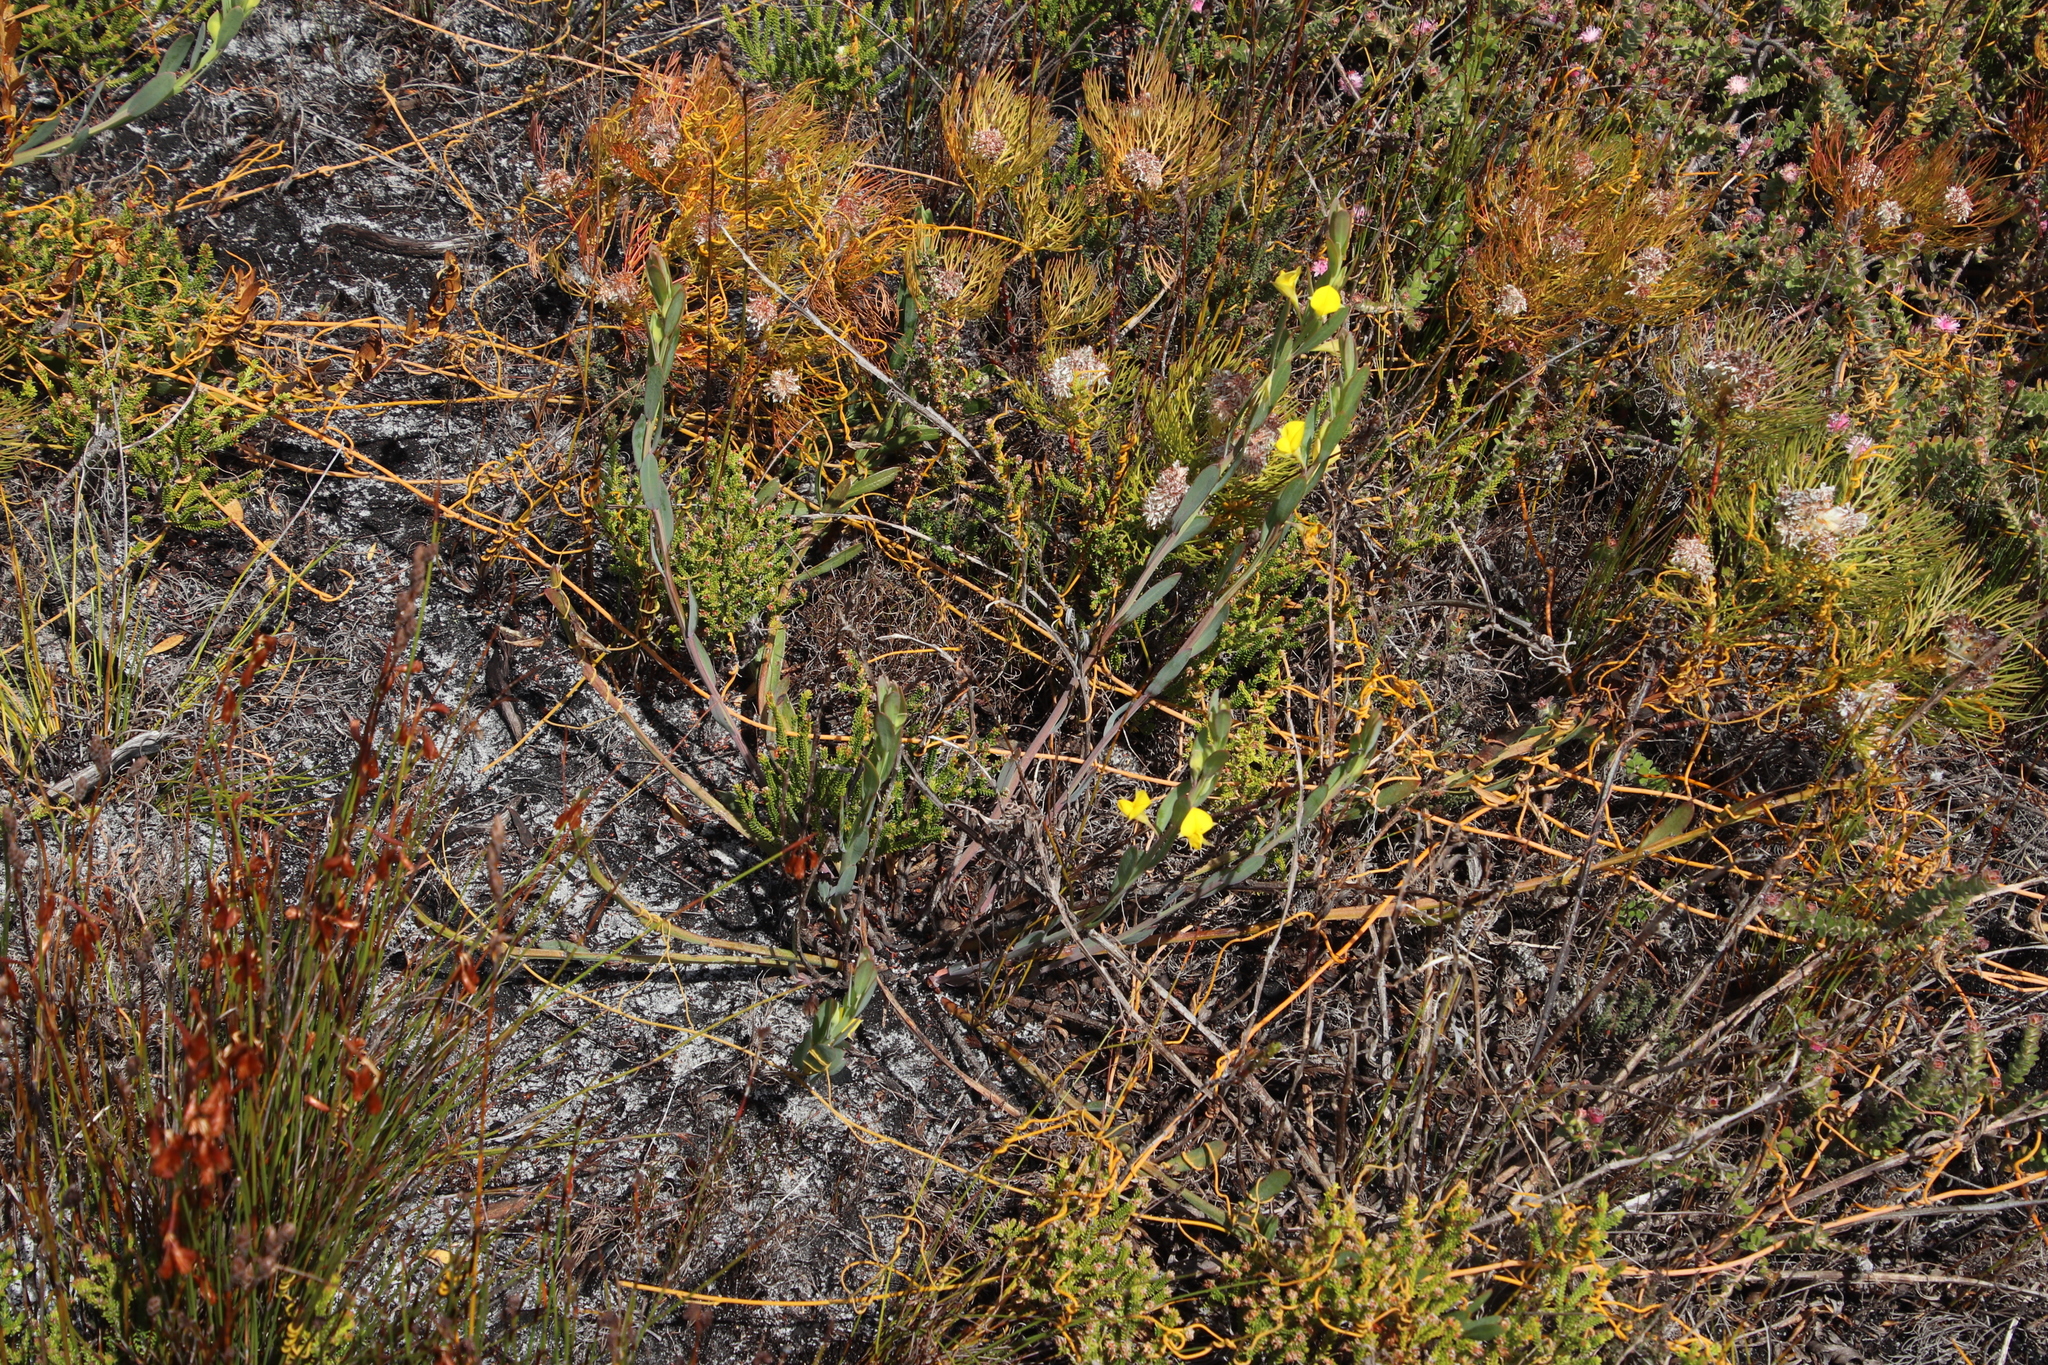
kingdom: Plantae
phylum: Tracheophyta
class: Magnoliopsida
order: Fabales
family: Fabaceae
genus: Rafnia
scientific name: Rafnia crassifolia
